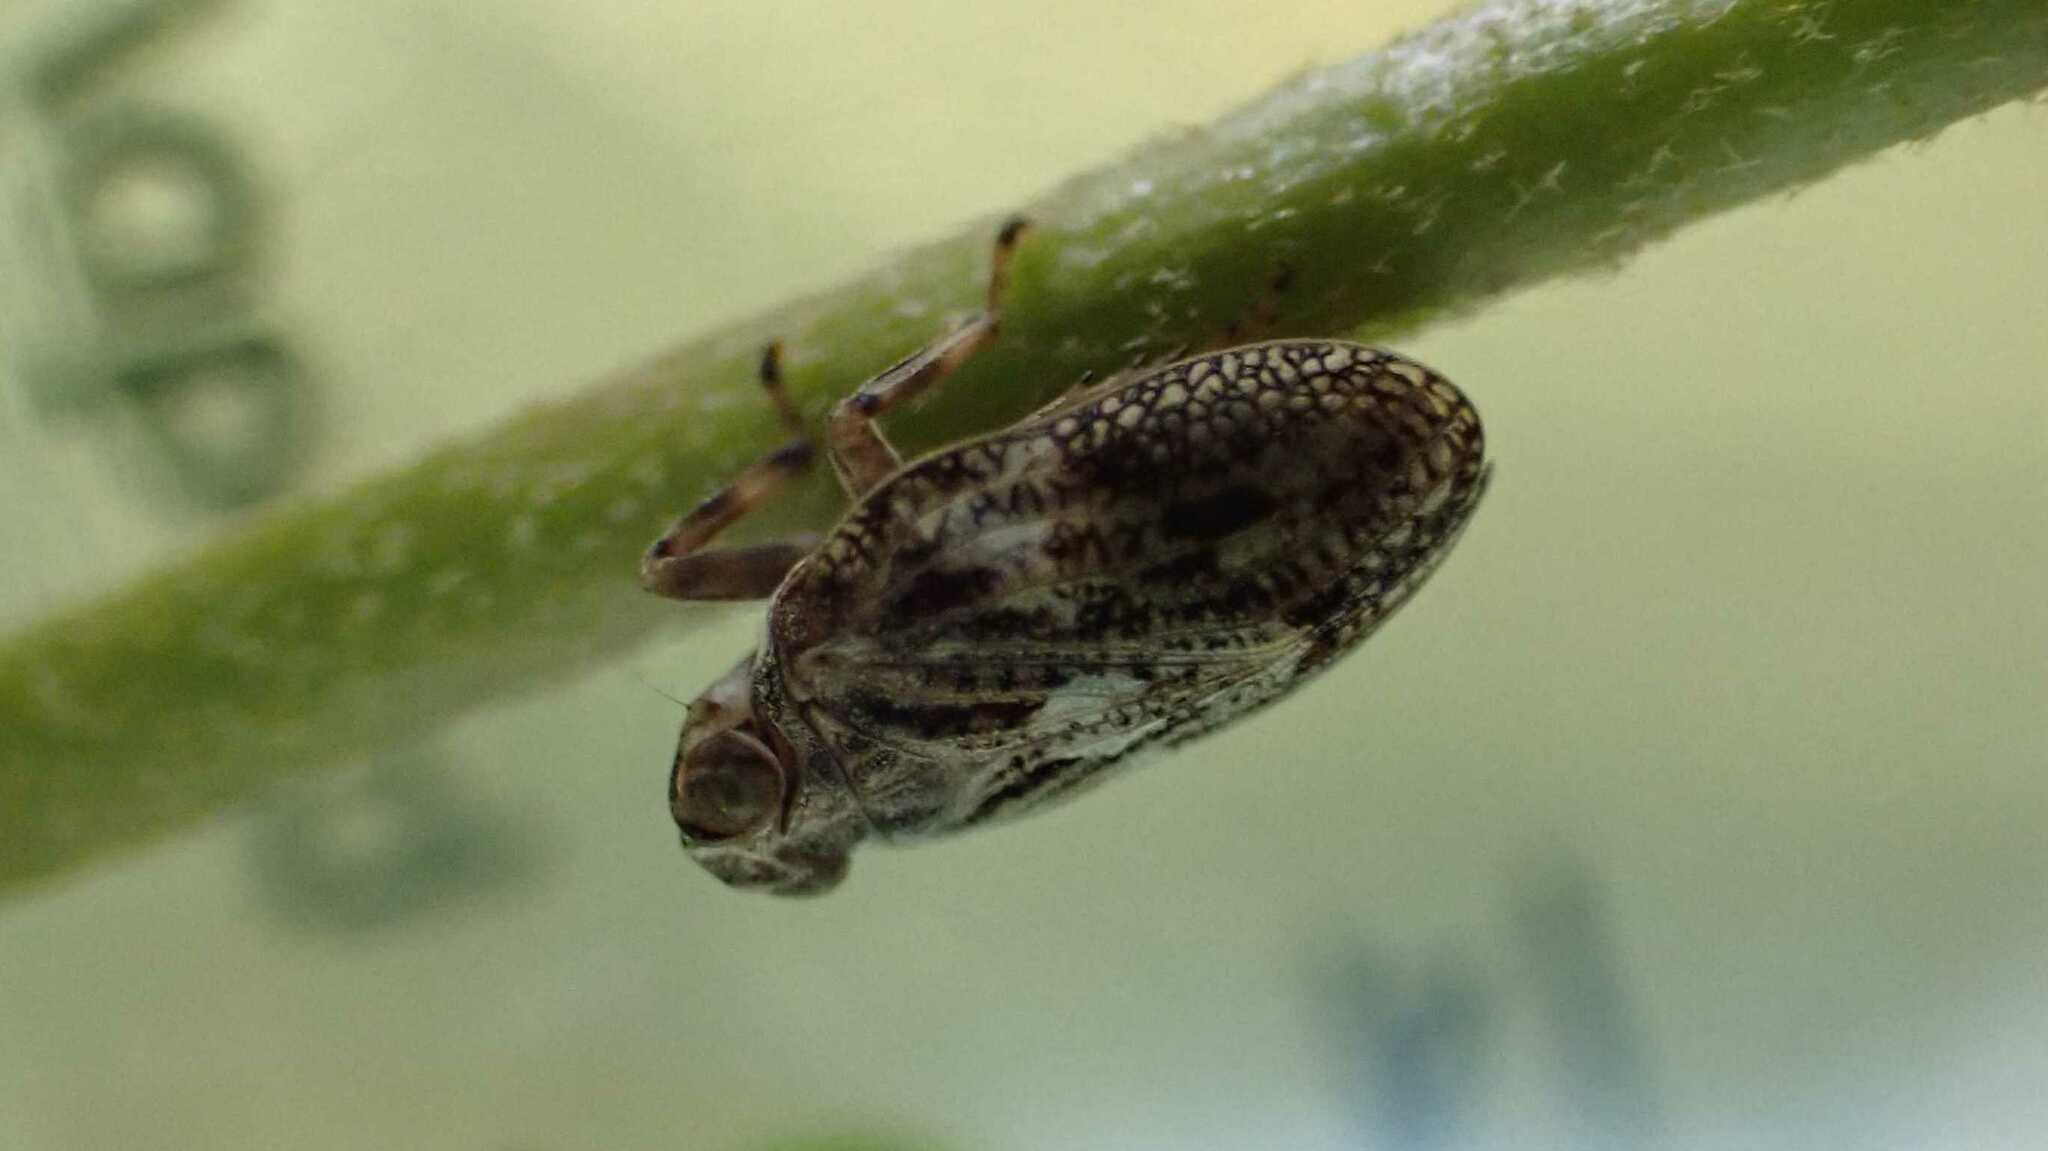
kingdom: Animalia
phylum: Arthropoda
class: Insecta
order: Hemiptera
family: Issidae
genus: Issus
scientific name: Issus coleoptratus
